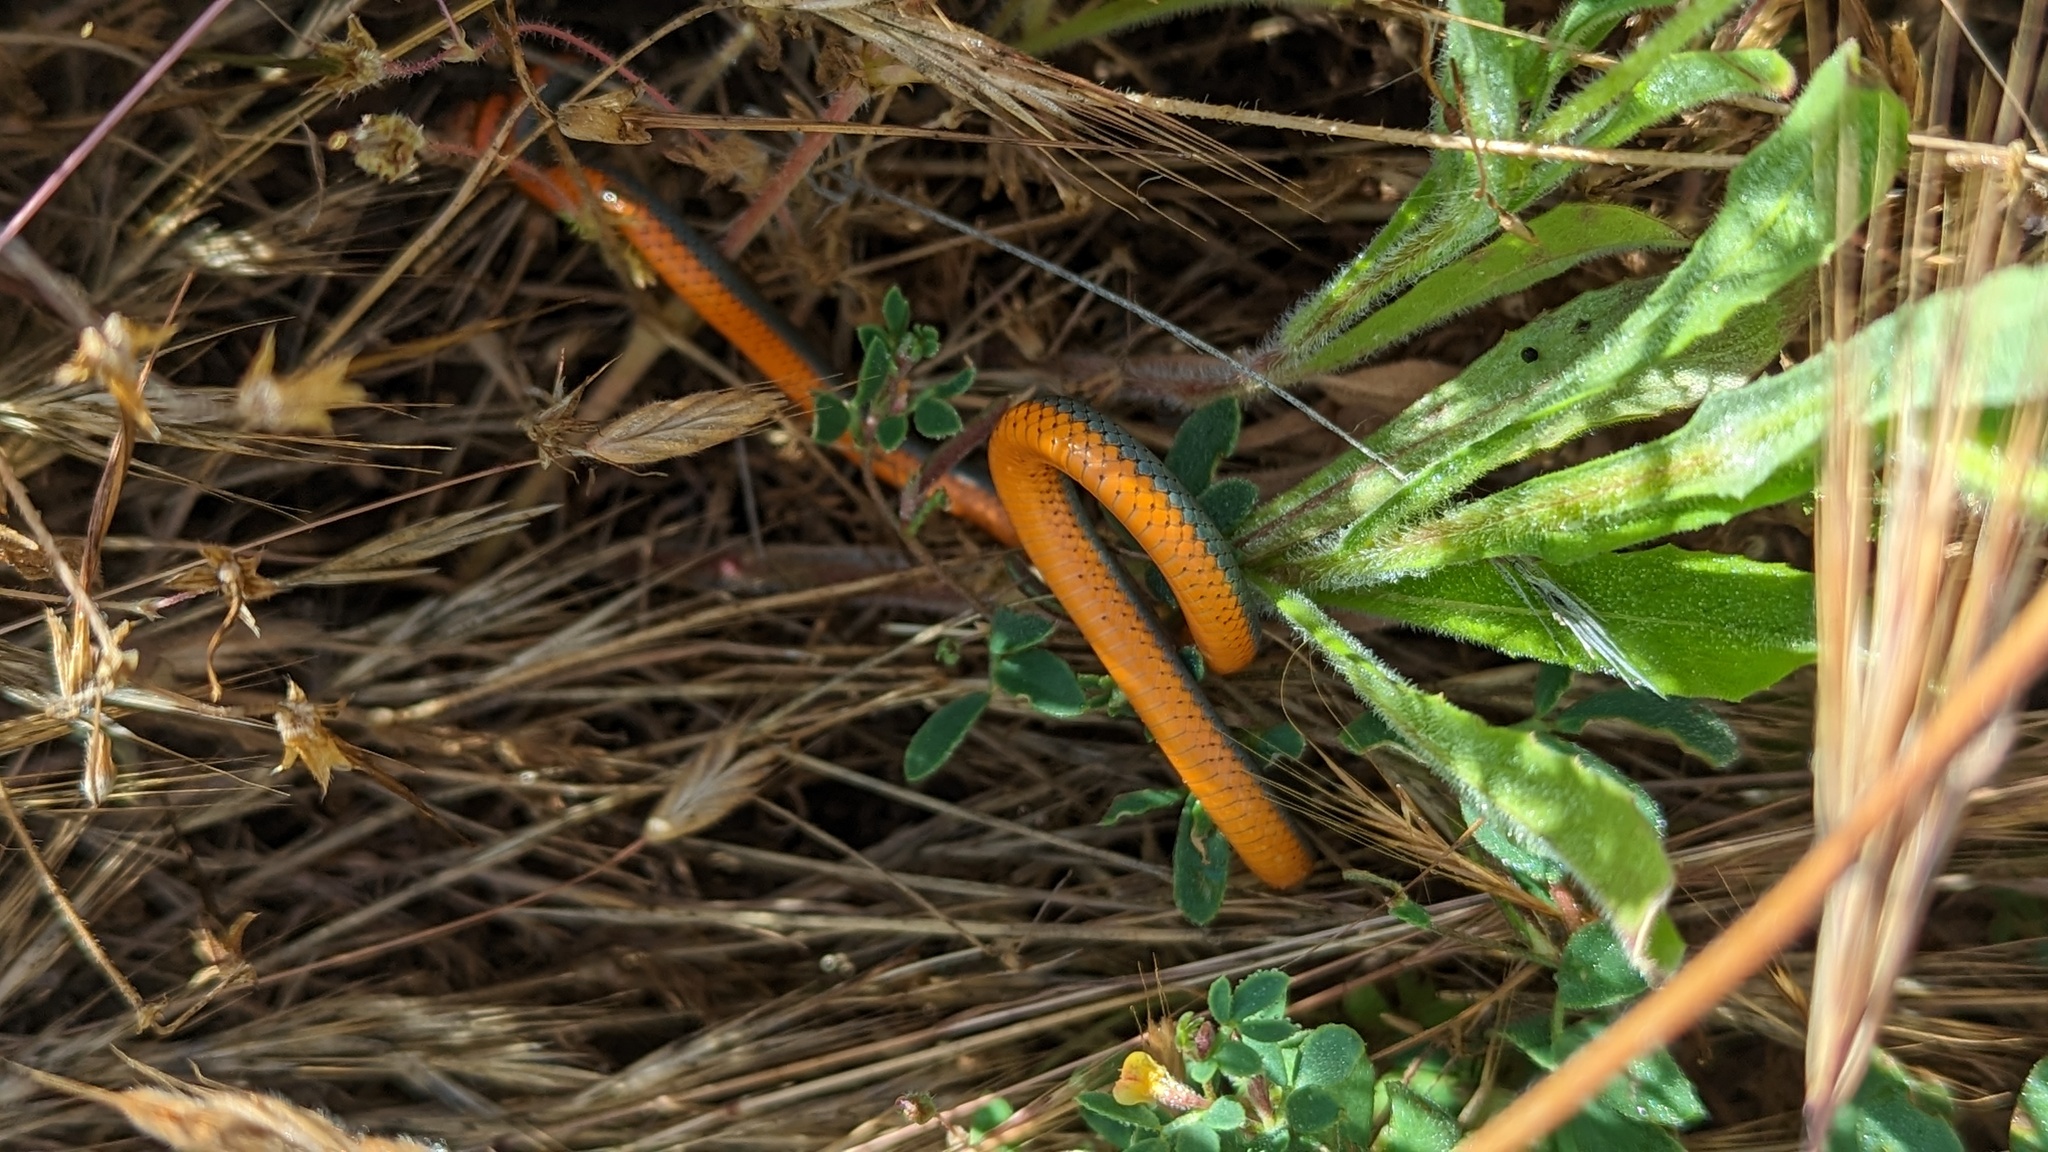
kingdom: Animalia
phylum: Chordata
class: Squamata
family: Colubridae
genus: Diadophis
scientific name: Diadophis punctatus
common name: Ringneck snake
